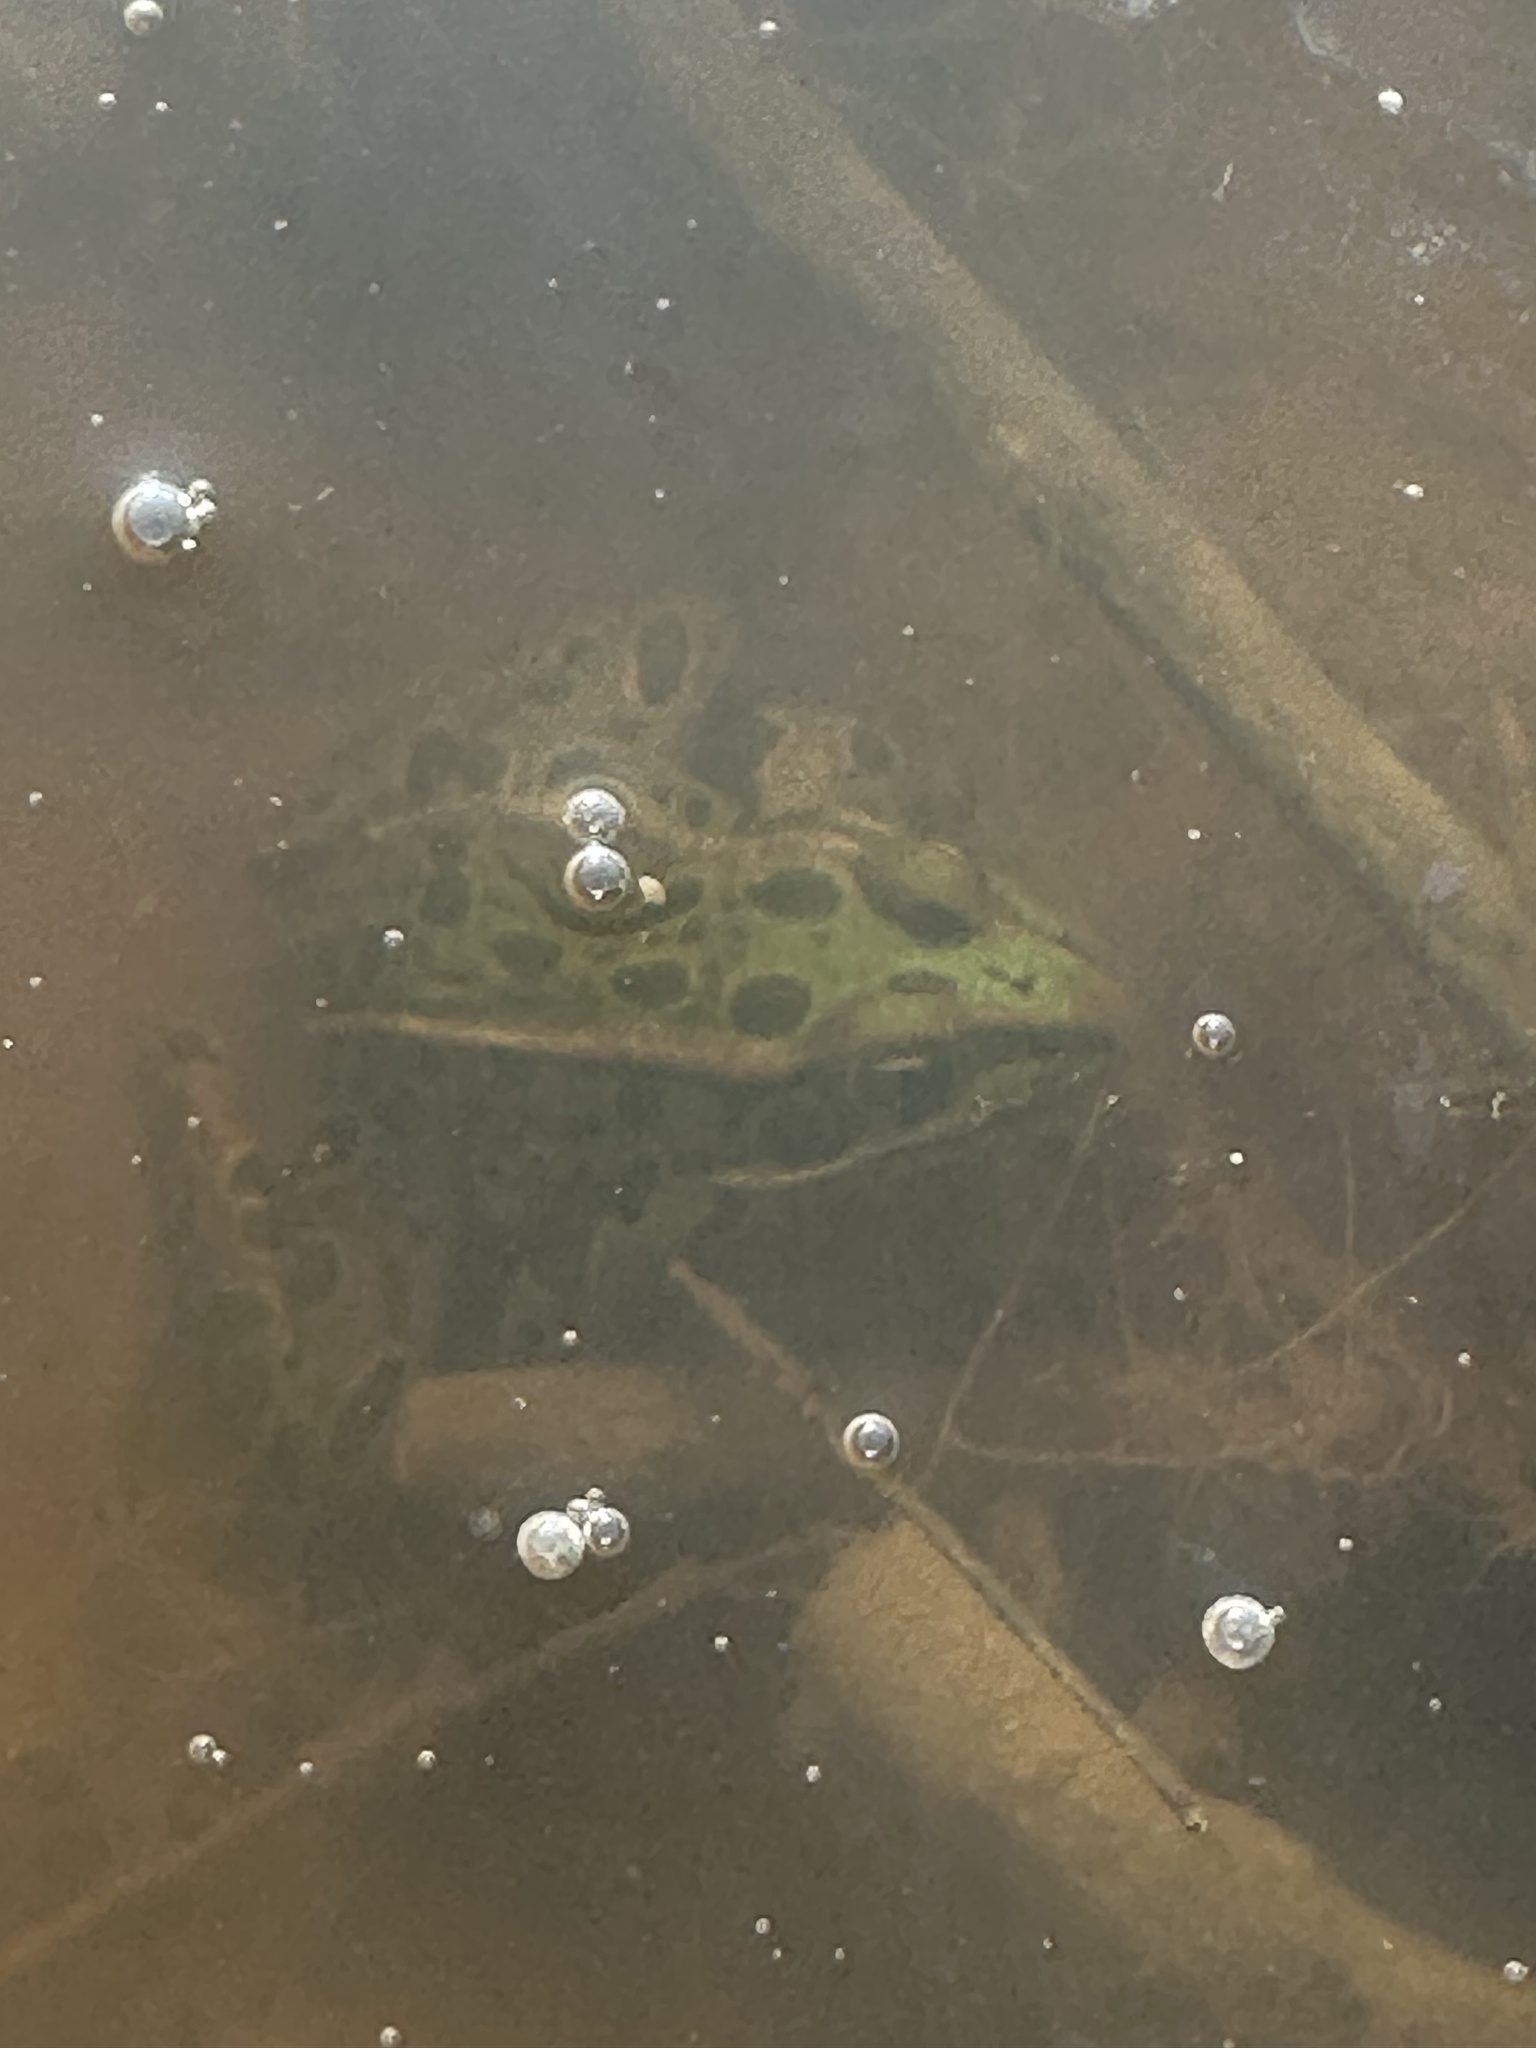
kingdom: Animalia
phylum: Chordata
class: Amphibia
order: Anura
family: Ranidae
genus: Lithobates
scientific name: Lithobates pipiens
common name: Northern leopard frog
